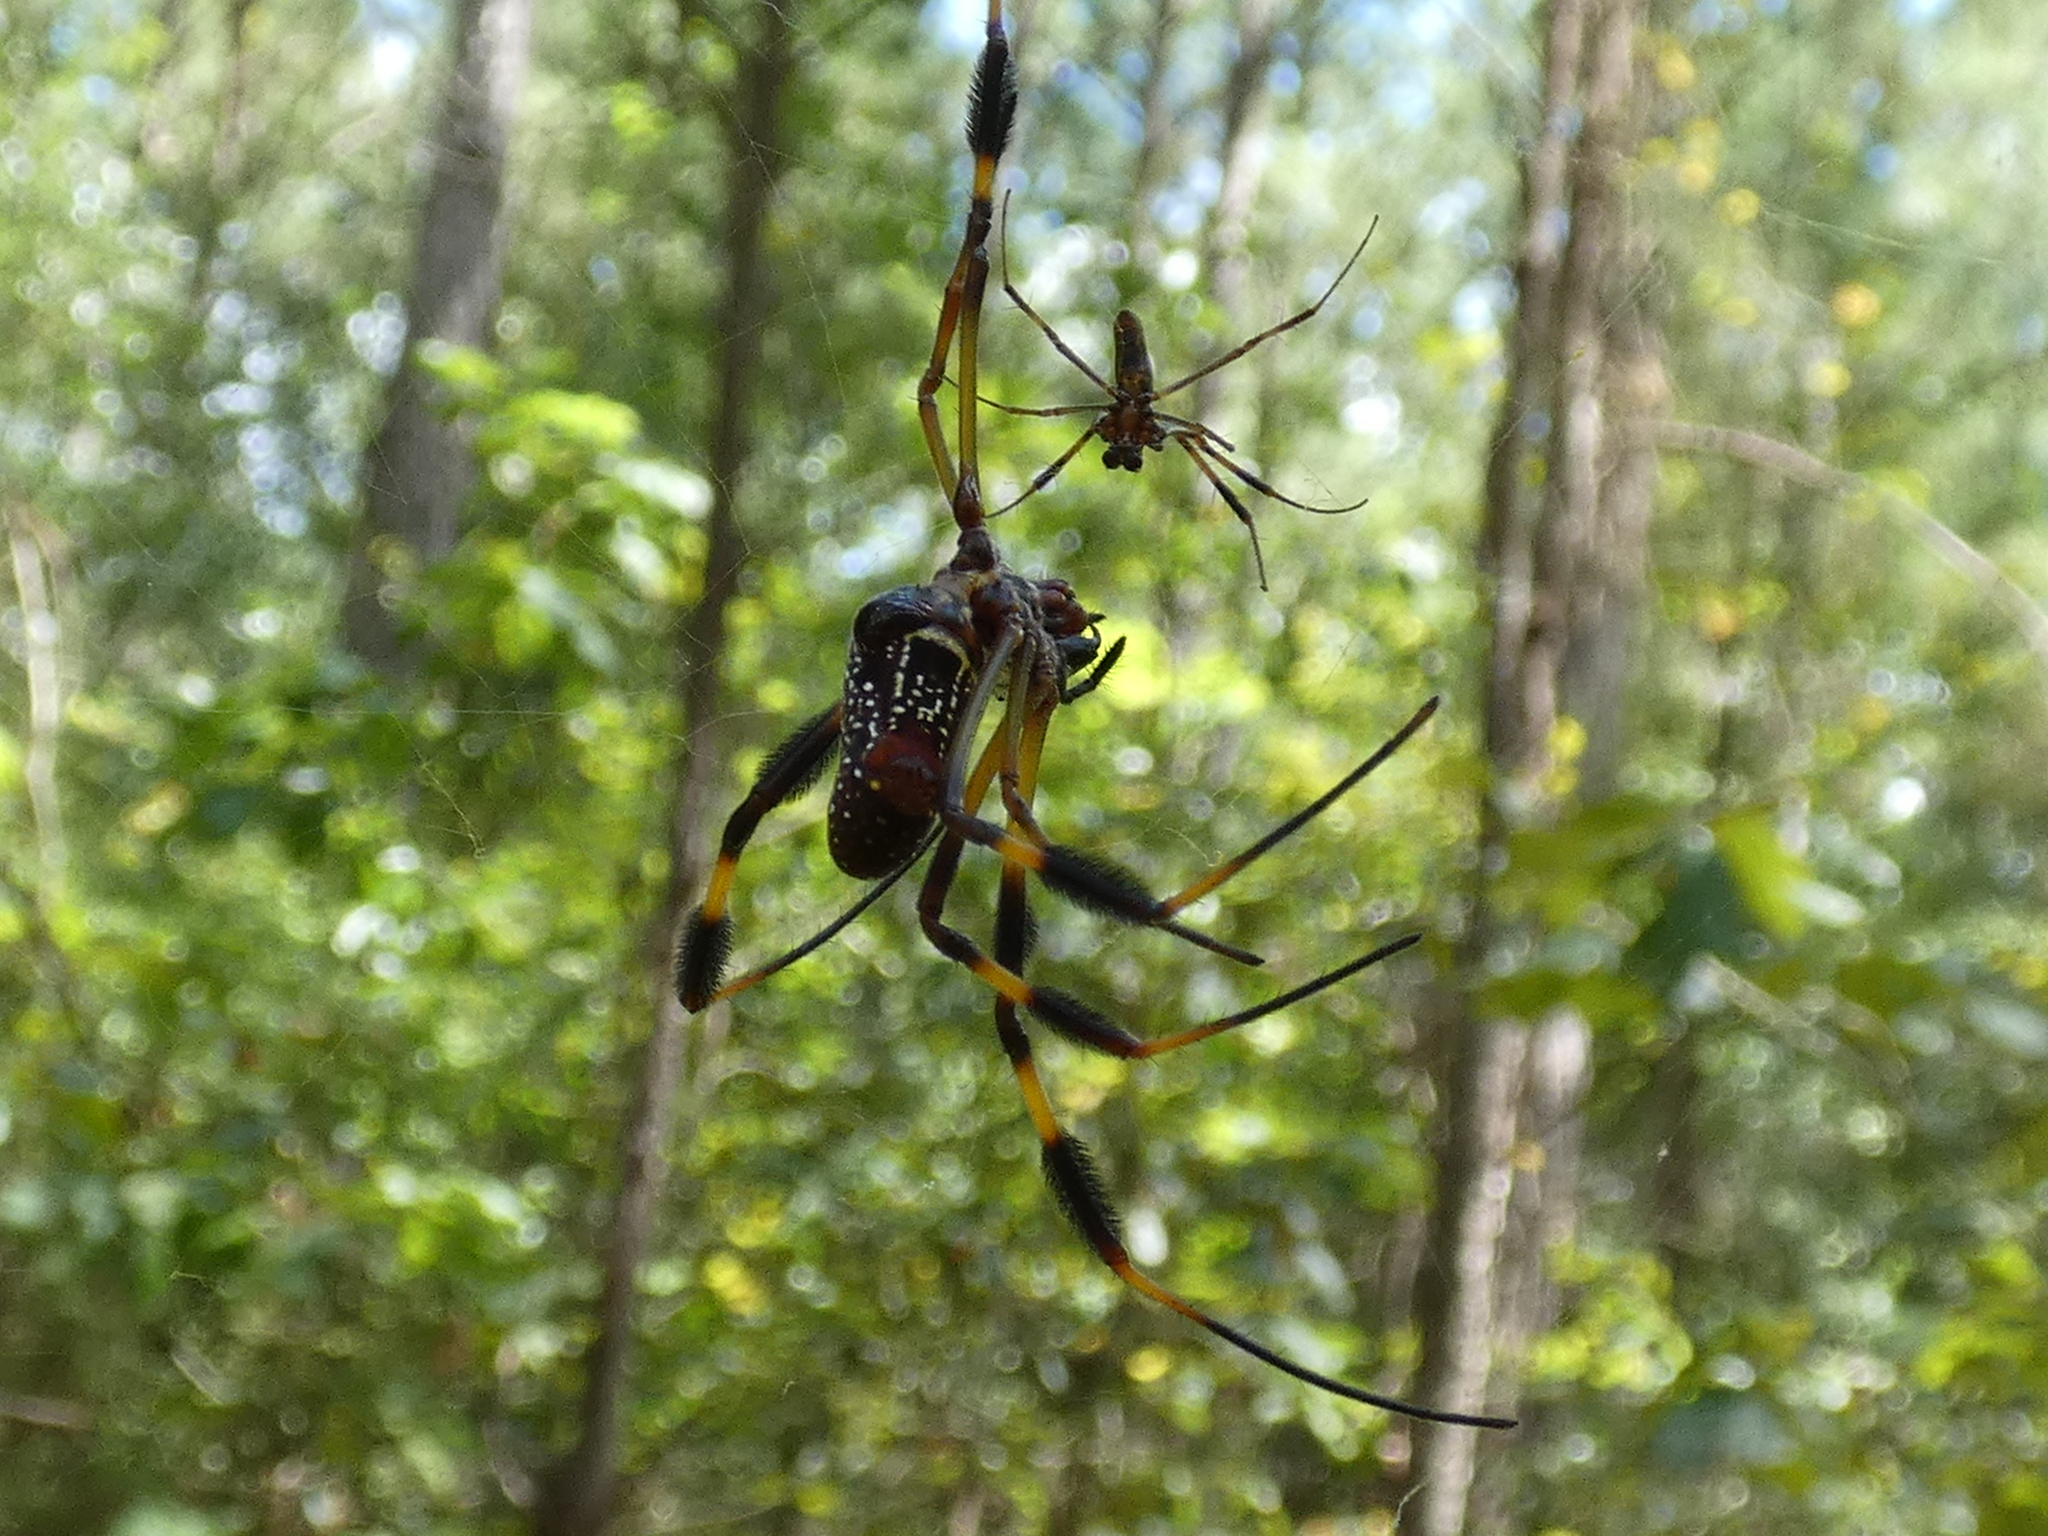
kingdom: Animalia
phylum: Arthropoda
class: Arachnida
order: Araneae
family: Araneidae
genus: Trichonephila
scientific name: Trichonephila clavipes
